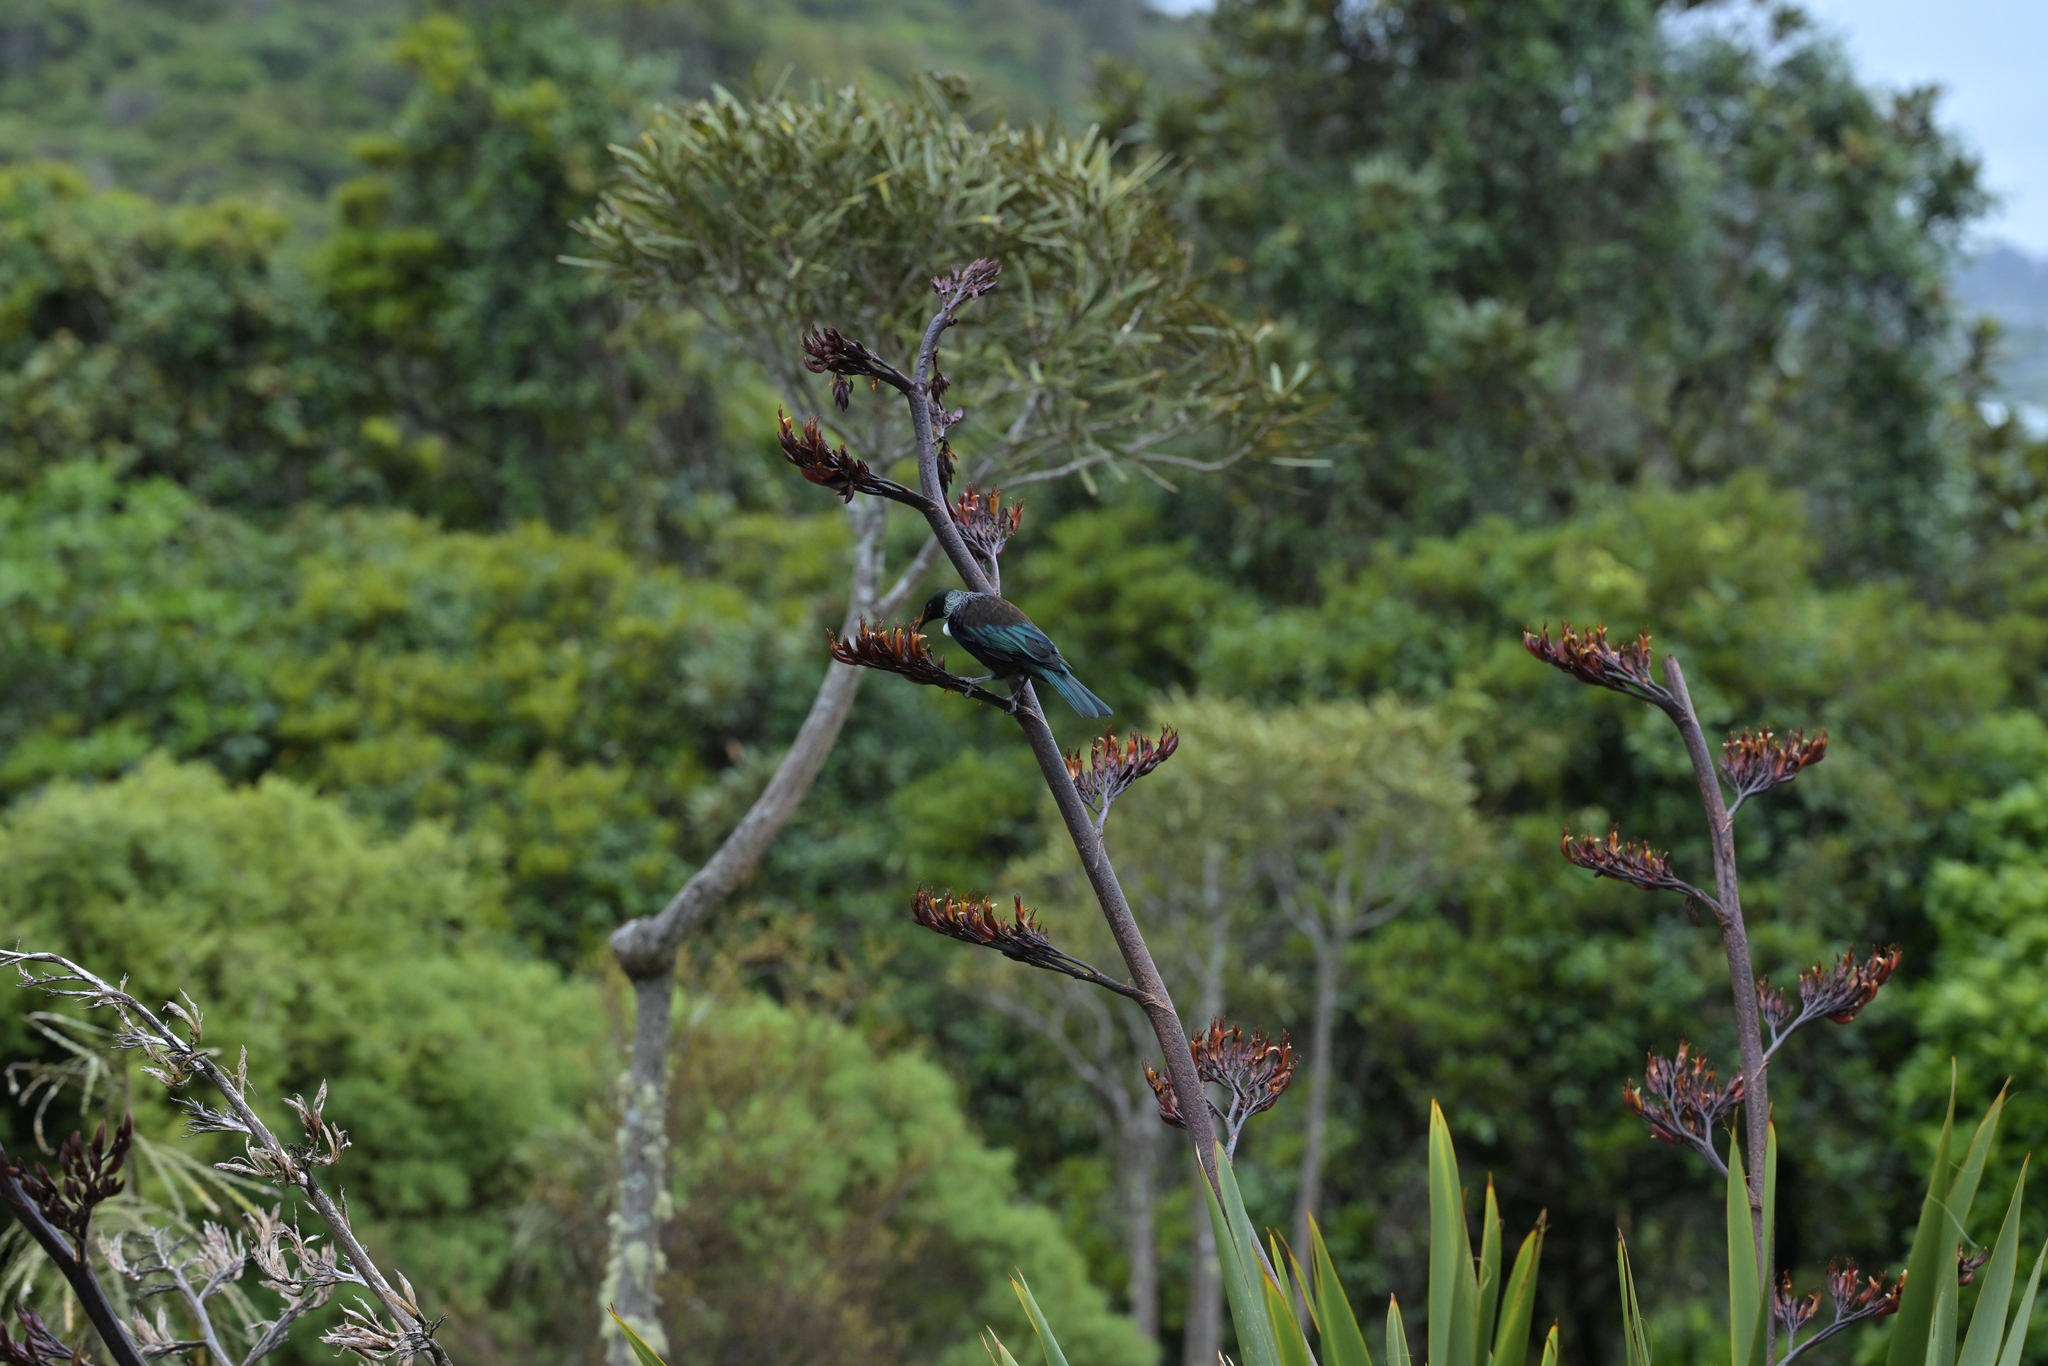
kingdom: Animalia
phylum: Chordata
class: Aves
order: Passeriformes
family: Meliphagidae
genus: Prosthemadera
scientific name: Prosthemadera novaeseelandiae
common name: Tui
